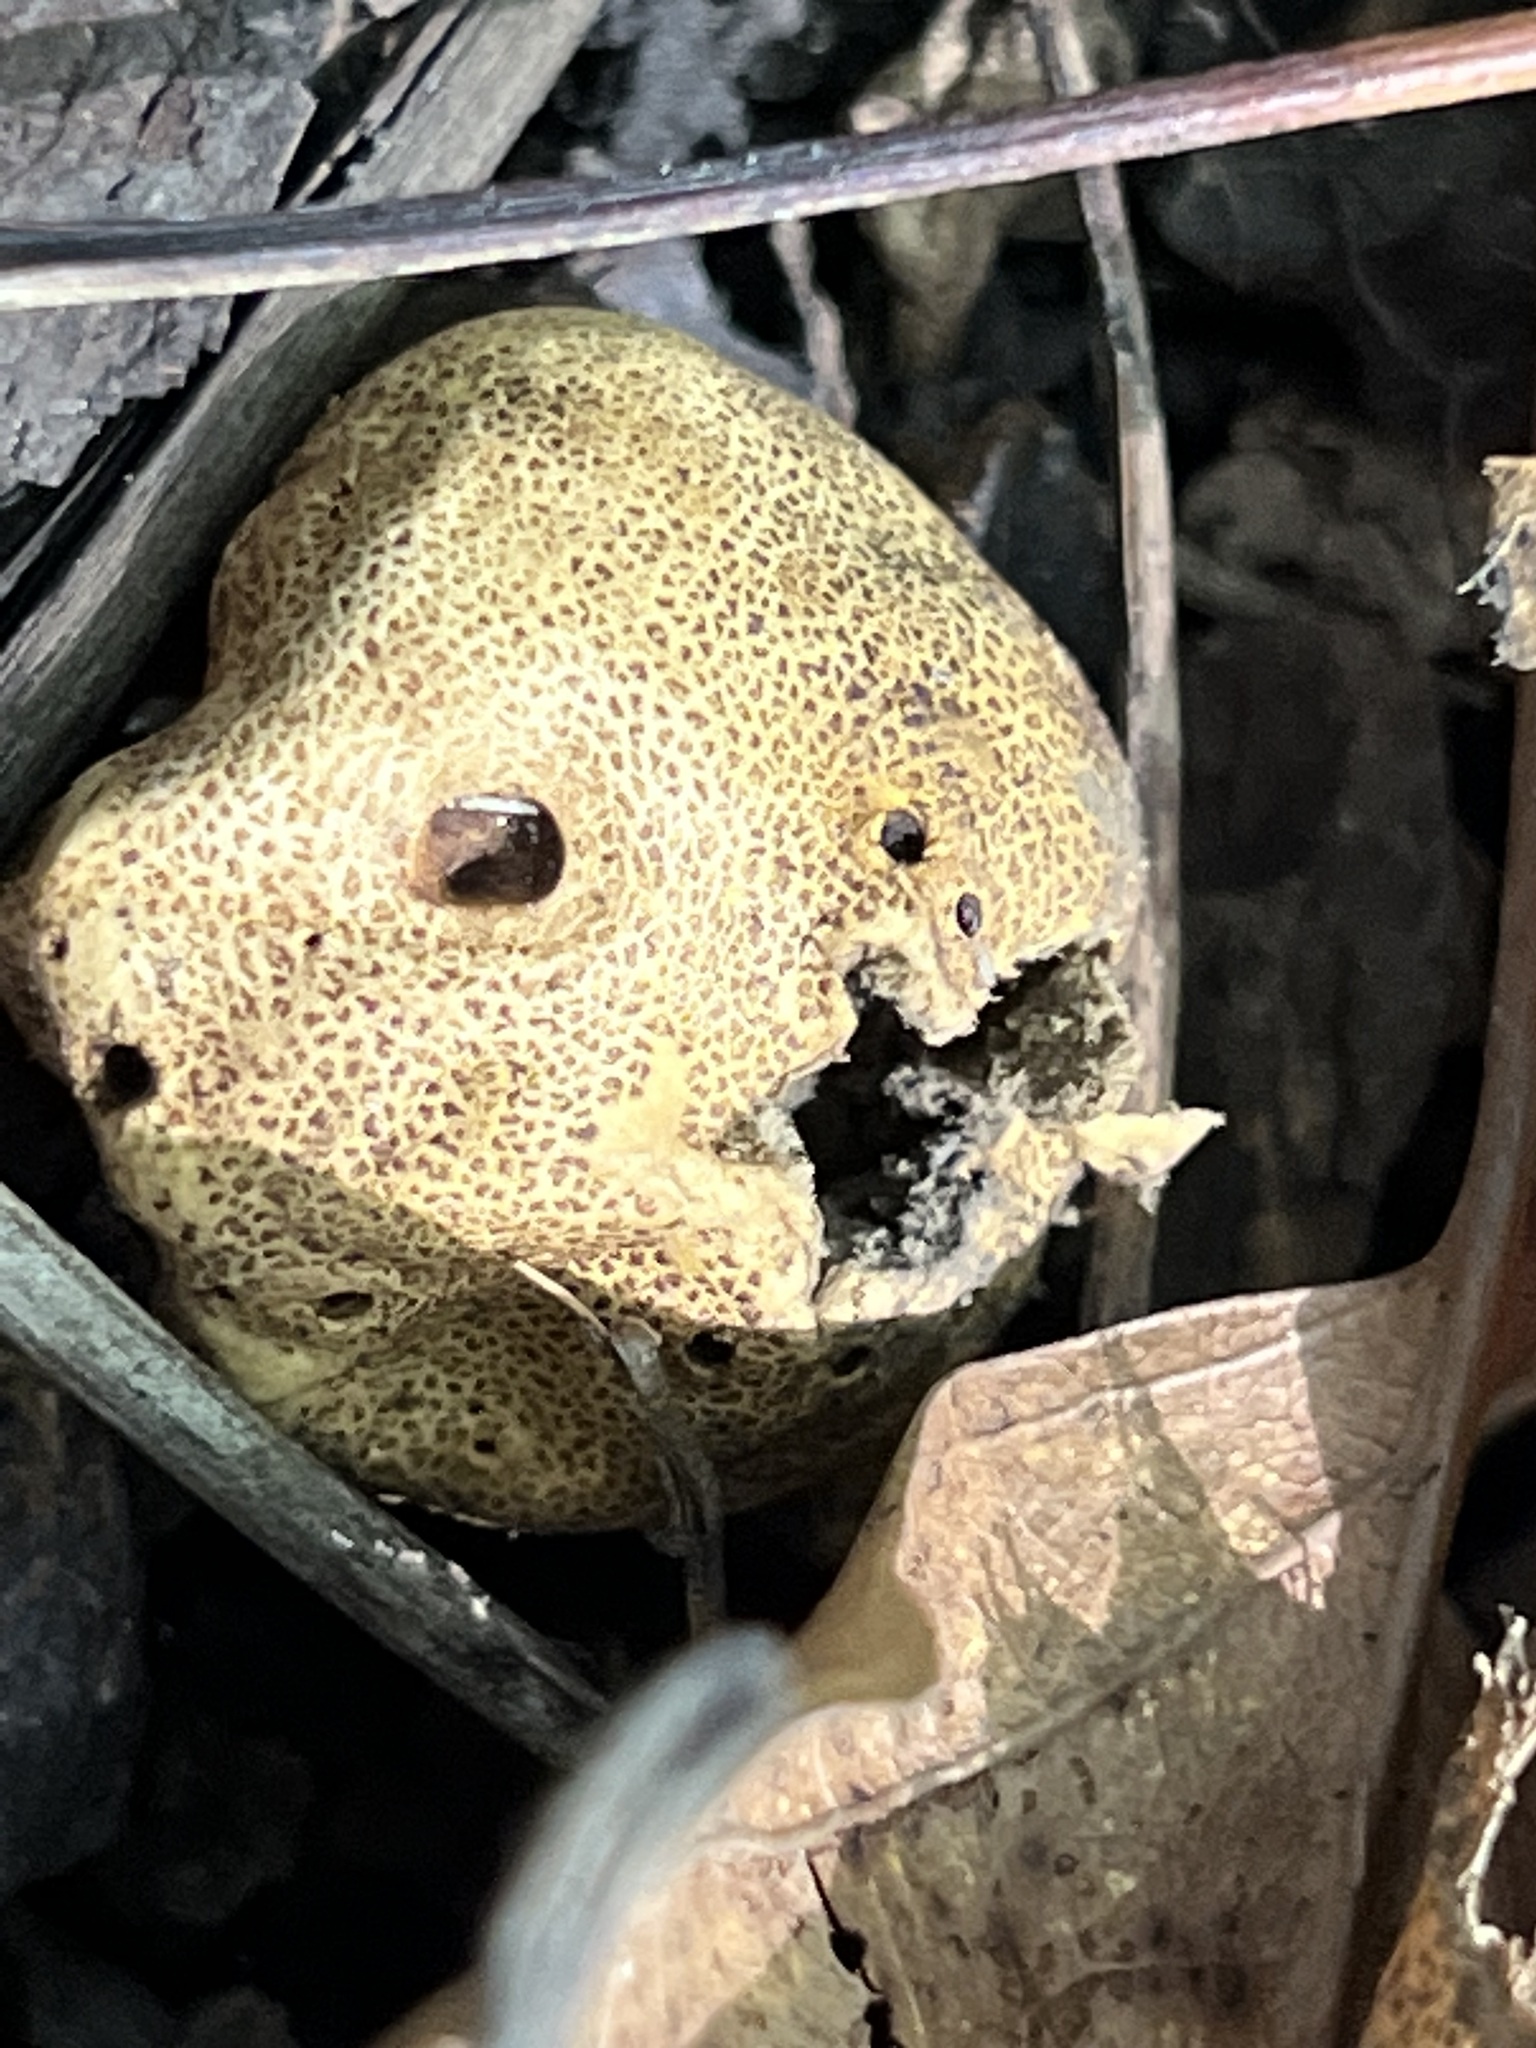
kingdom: Fungi
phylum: Basidiomycota
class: Agaricomycetes
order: Boletales
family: Sclerodermataceae
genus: Scleroderma
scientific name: Scleroderma areolatum
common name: Leopard earthball
